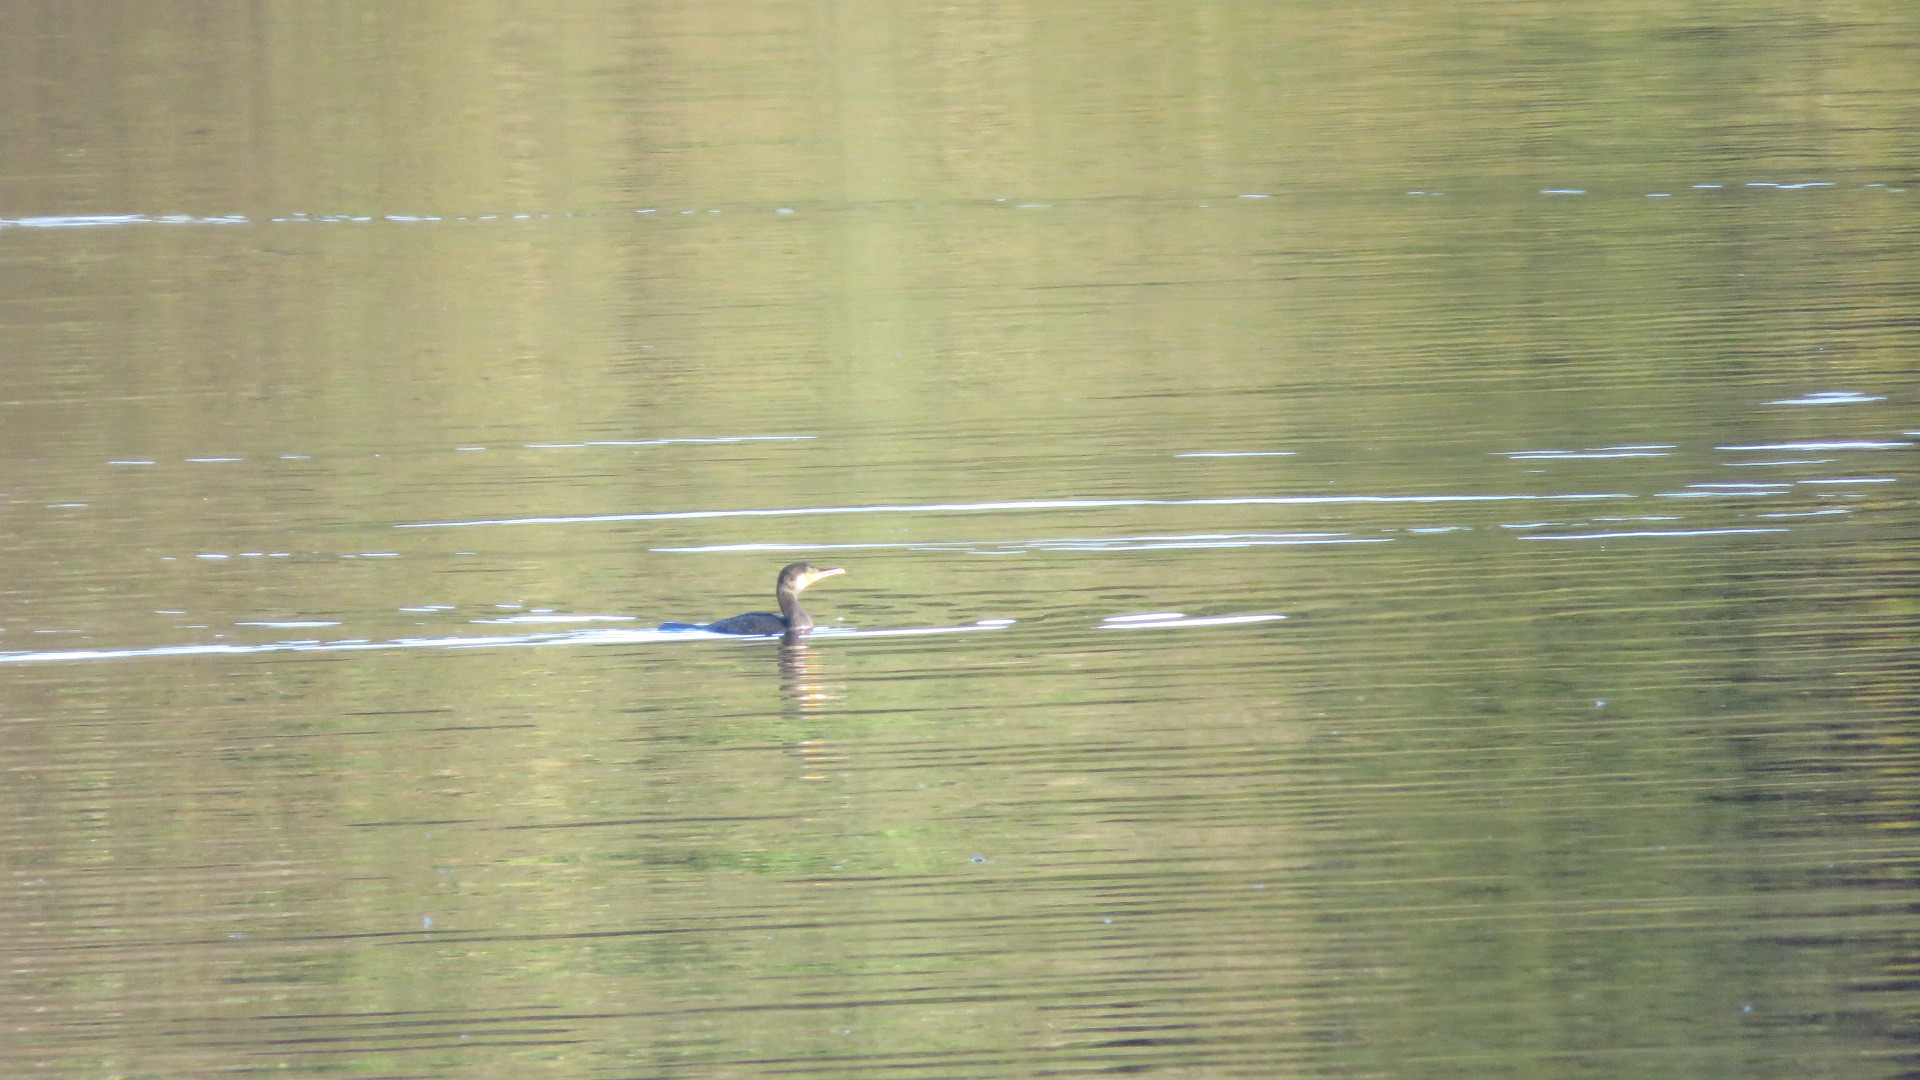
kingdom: Animalia
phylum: Chordata
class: Aves
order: Suliformes
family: Phalacrocoracidae
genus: Phalacrocorax
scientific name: Phalacrocorax carbo
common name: Great cormorant
